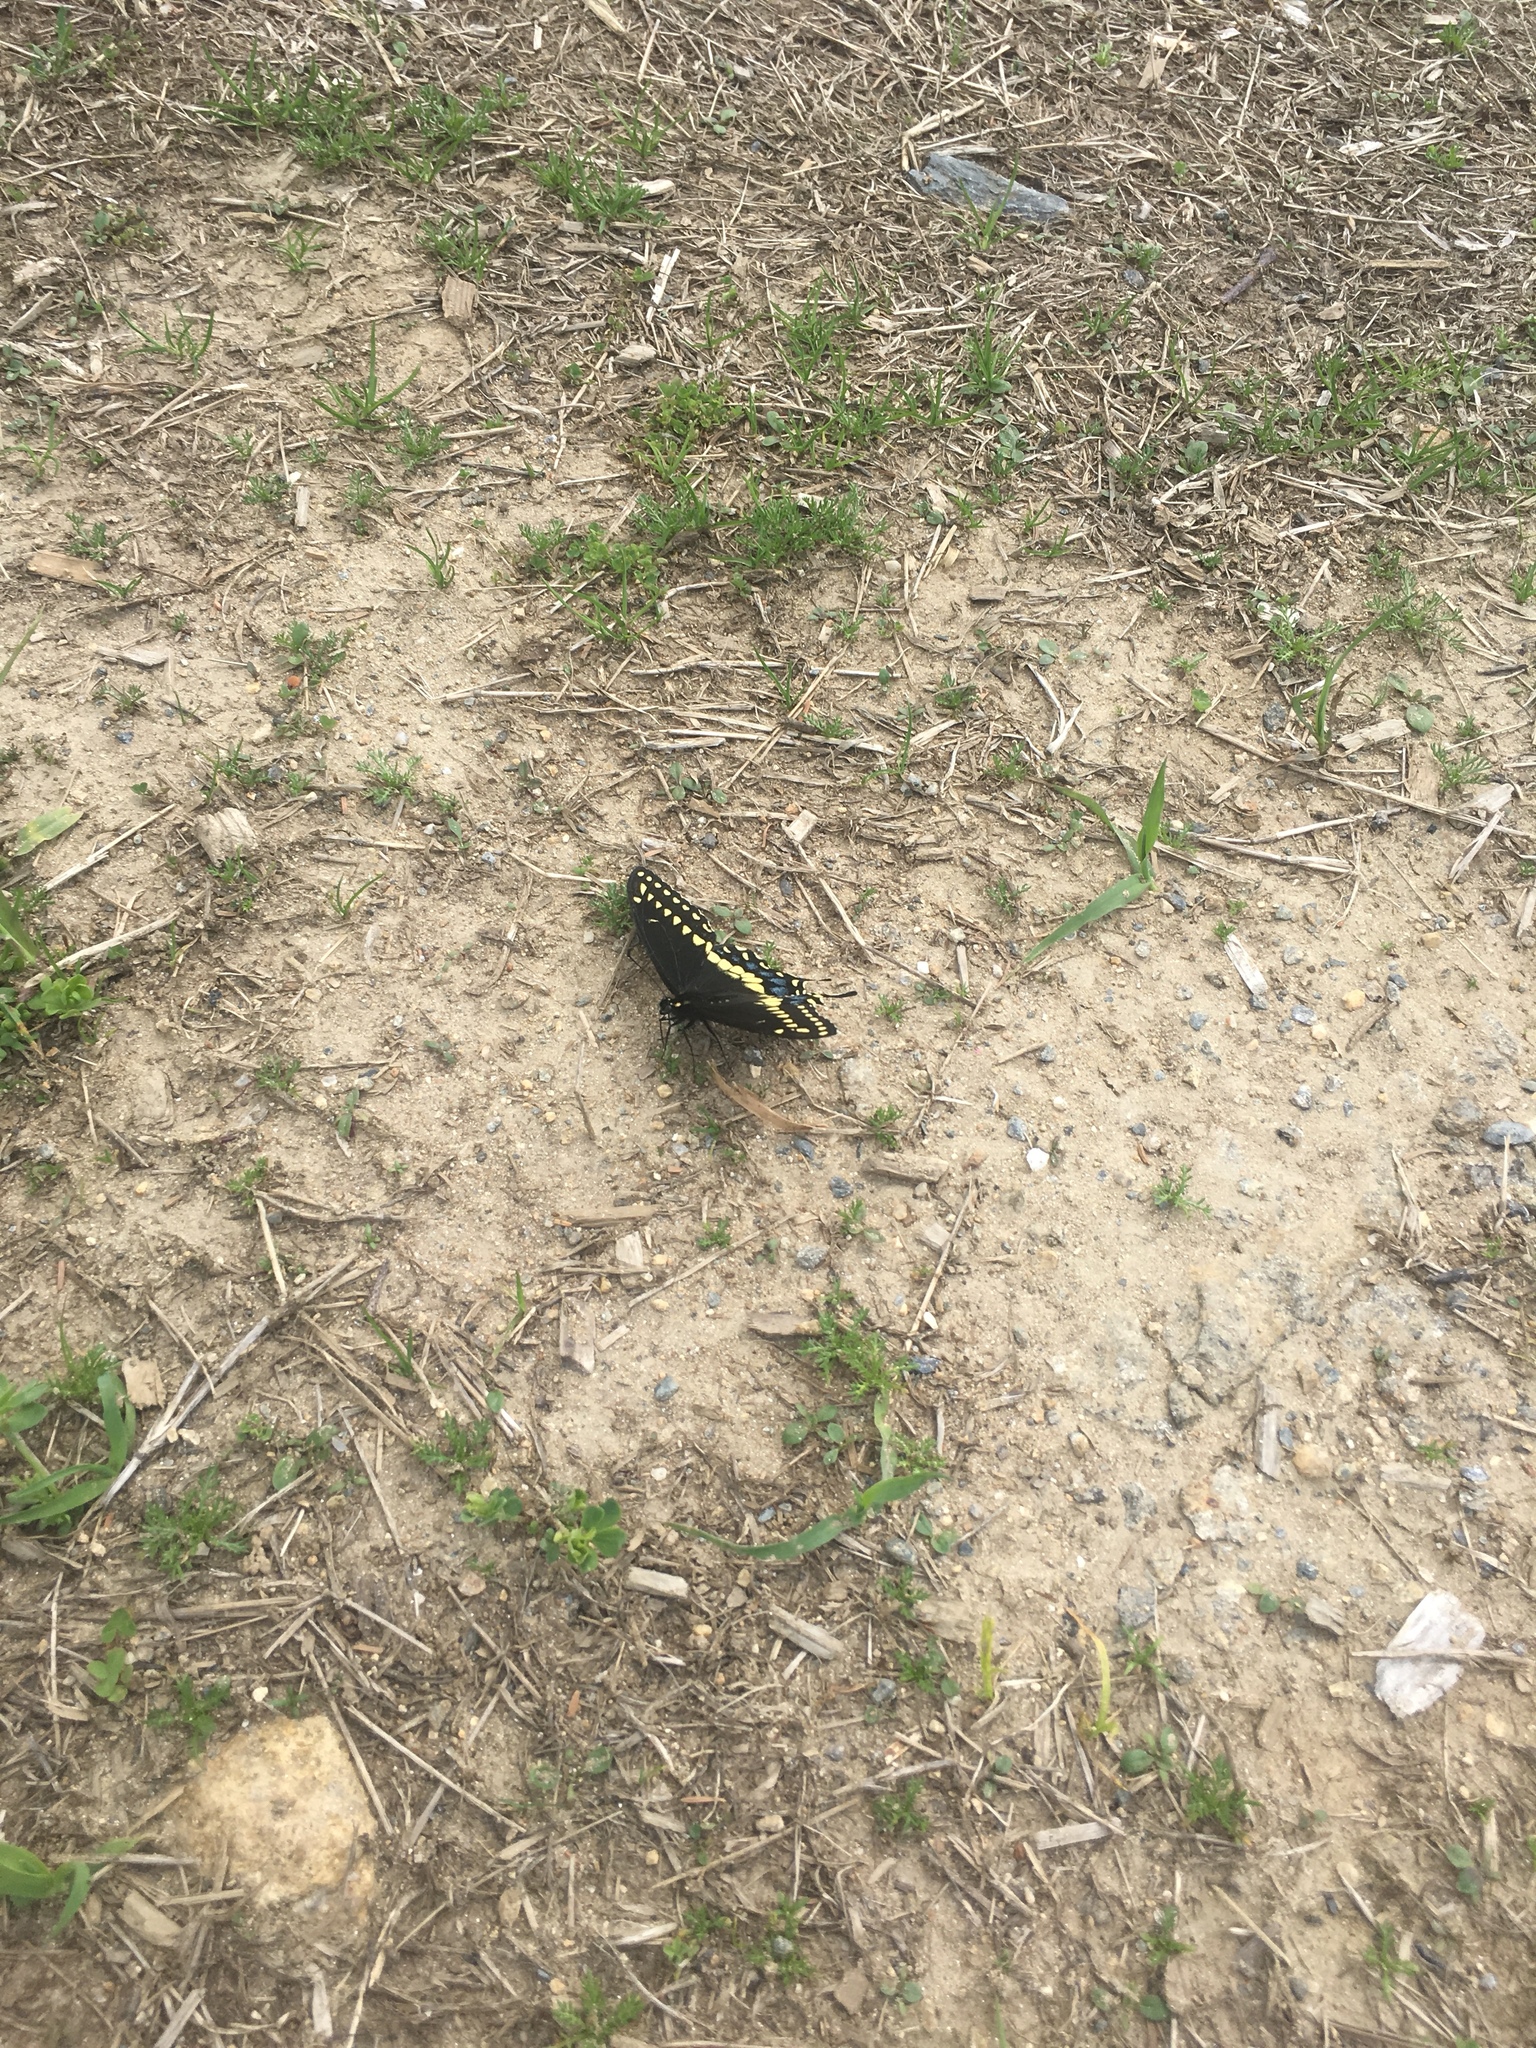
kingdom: Animalia
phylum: Arthropoda
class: Insecta
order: Lepidoptera
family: Papilionidae
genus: Papilio
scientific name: Papilio polyxenes
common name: Black swallowtail
